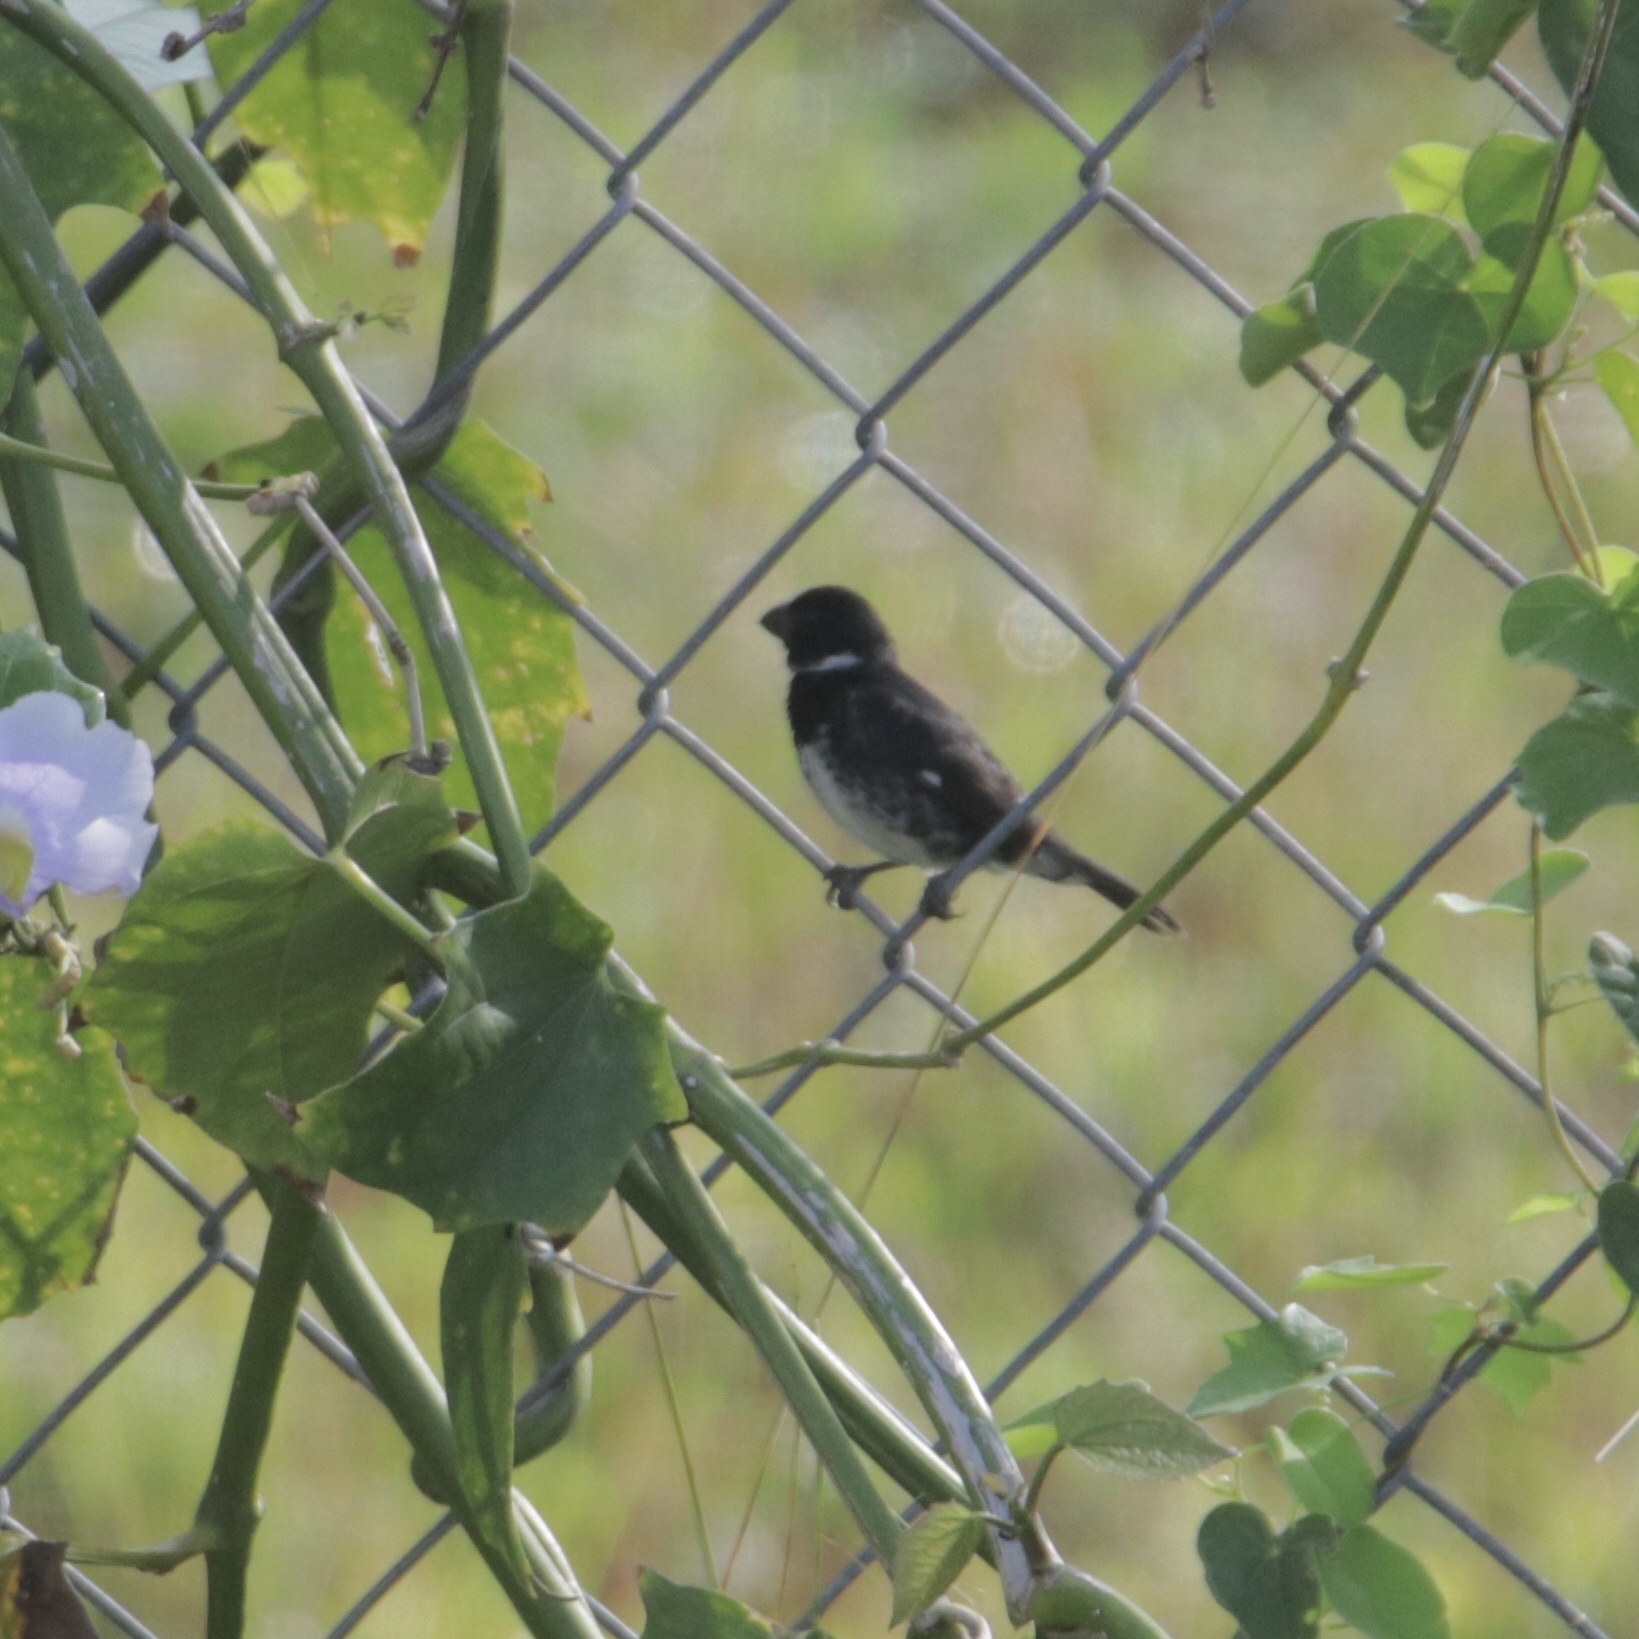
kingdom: Animalia
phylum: Chordata
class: Aves
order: Passeriformes
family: Thraupidae
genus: Sporophila
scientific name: Sporophila corvina
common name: Variable seedeater
